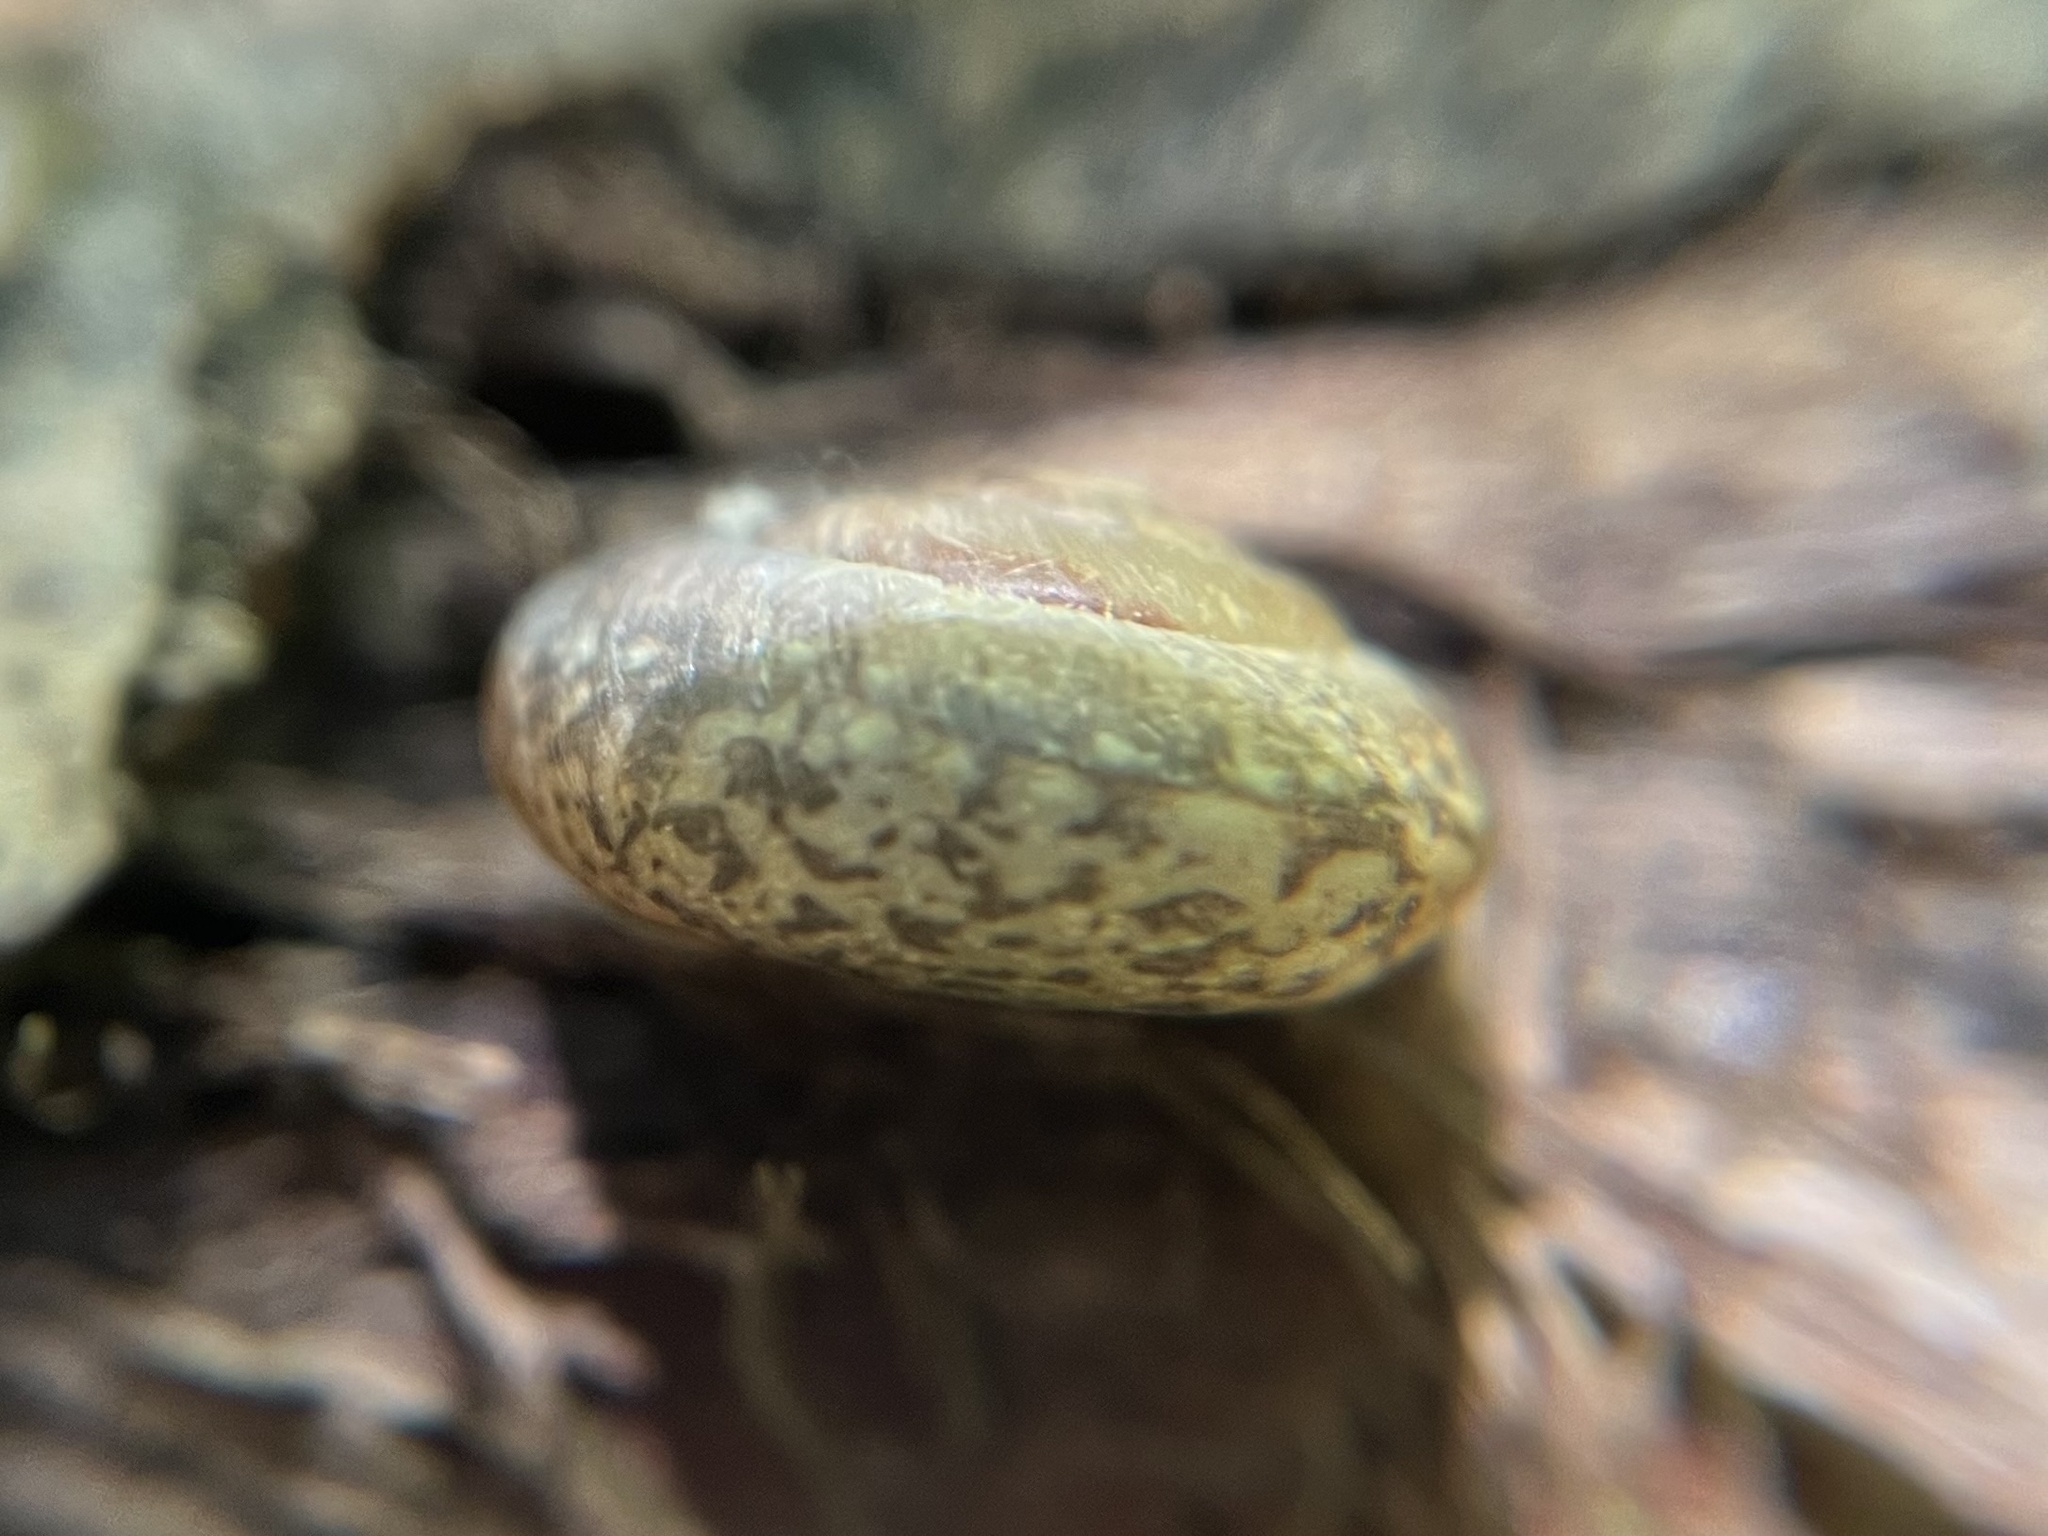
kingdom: Animalia
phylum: Mollusca
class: Gastropoda
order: Stylommatophora
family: Hygromiidae
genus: Urticicola
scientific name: Urticicola umbrosus
